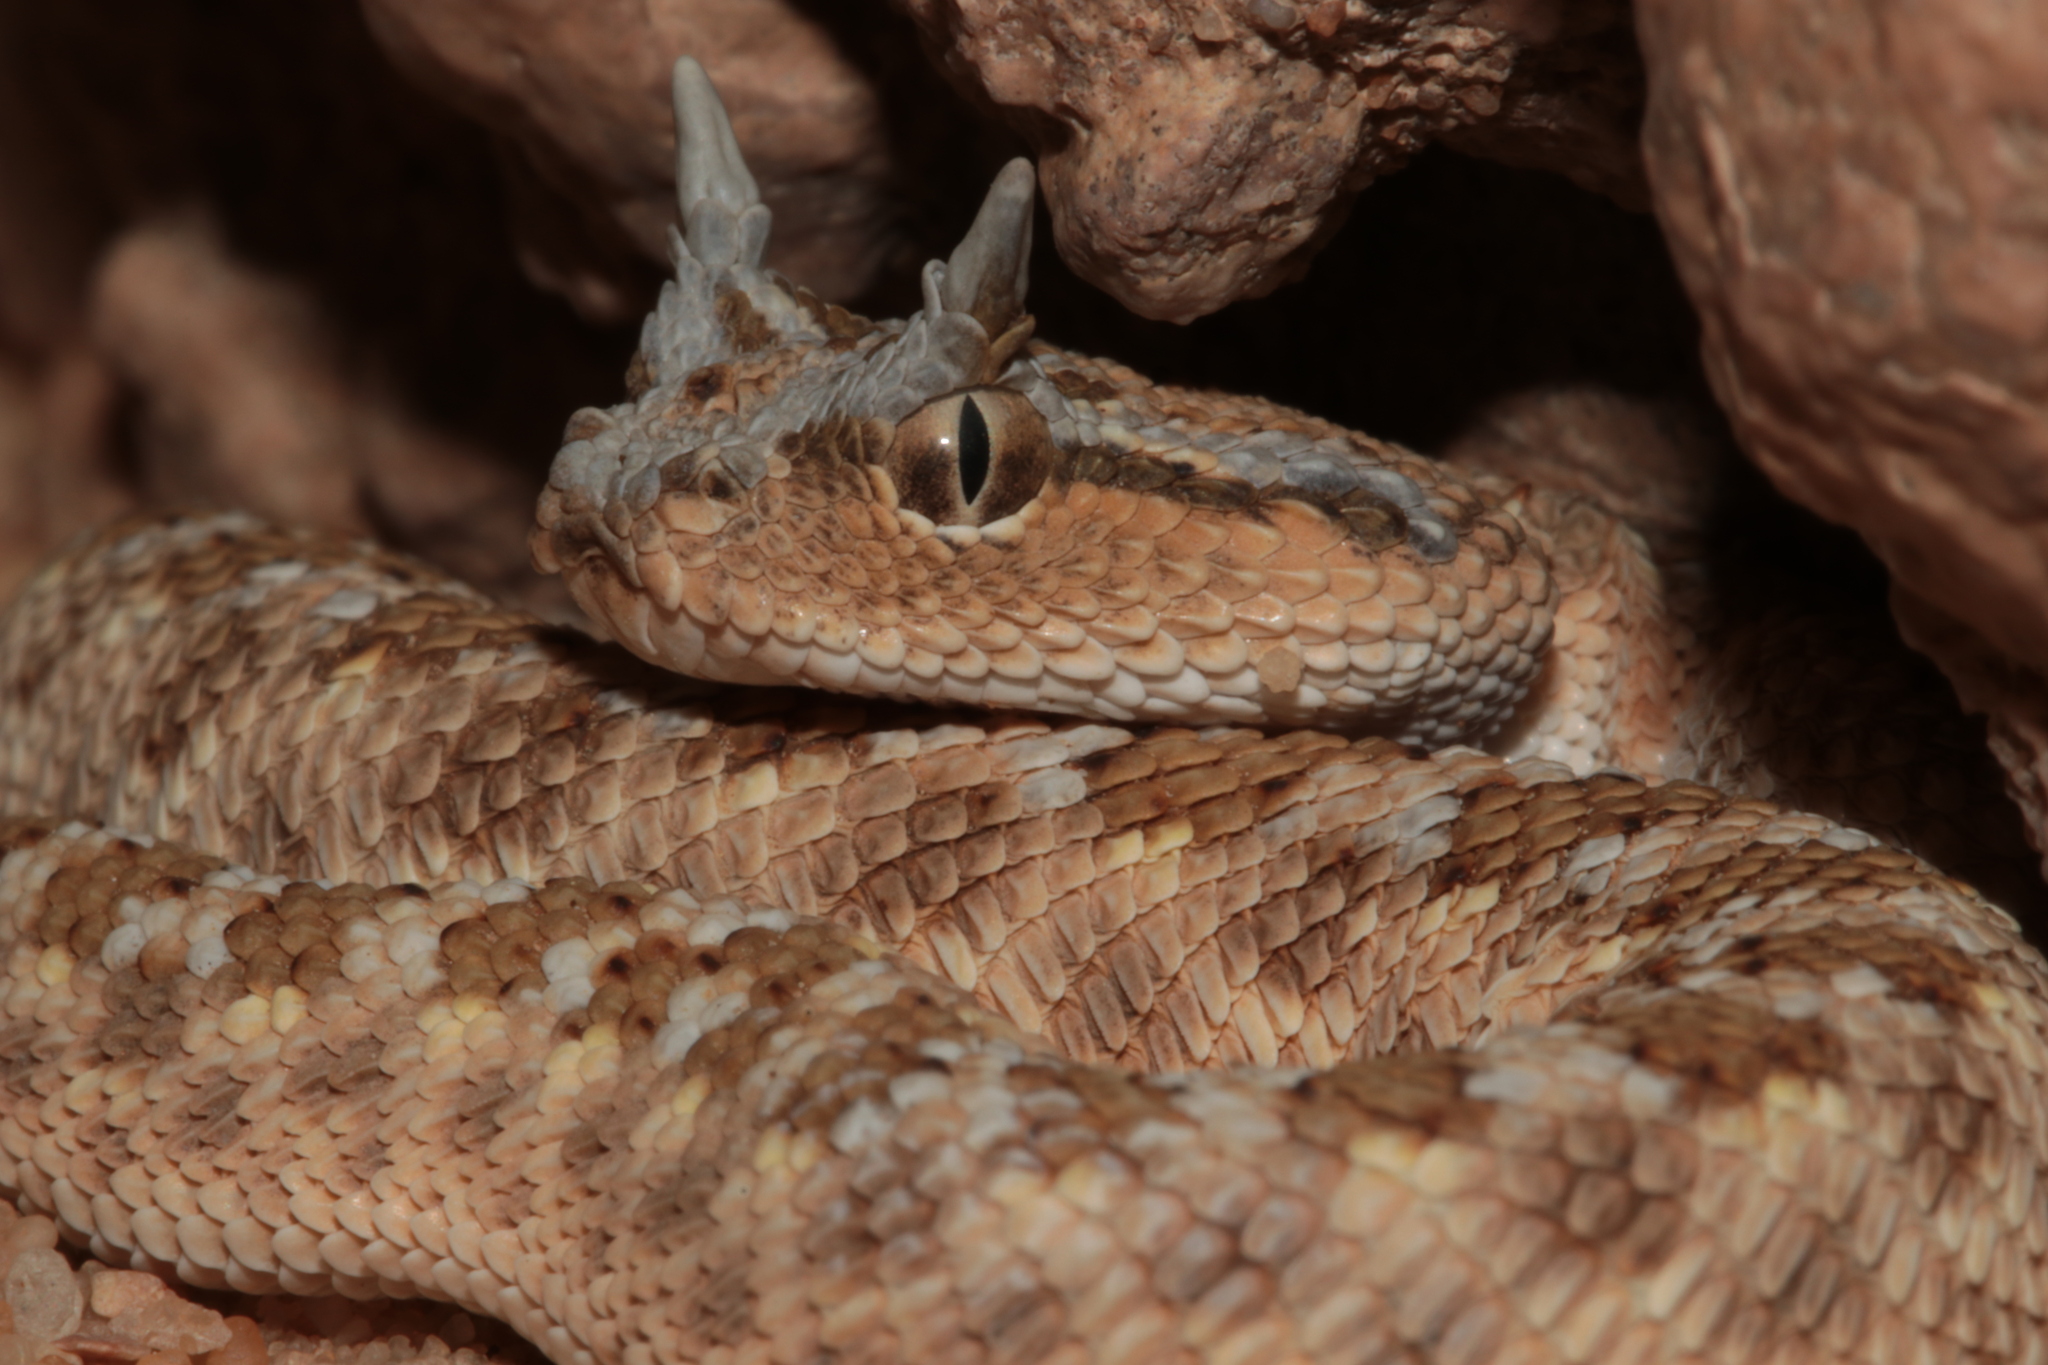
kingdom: Animalia
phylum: Chordata
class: Squamata
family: Viperidae
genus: Cerastes
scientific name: Cerastes gasperettii
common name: Arabian horned viper
